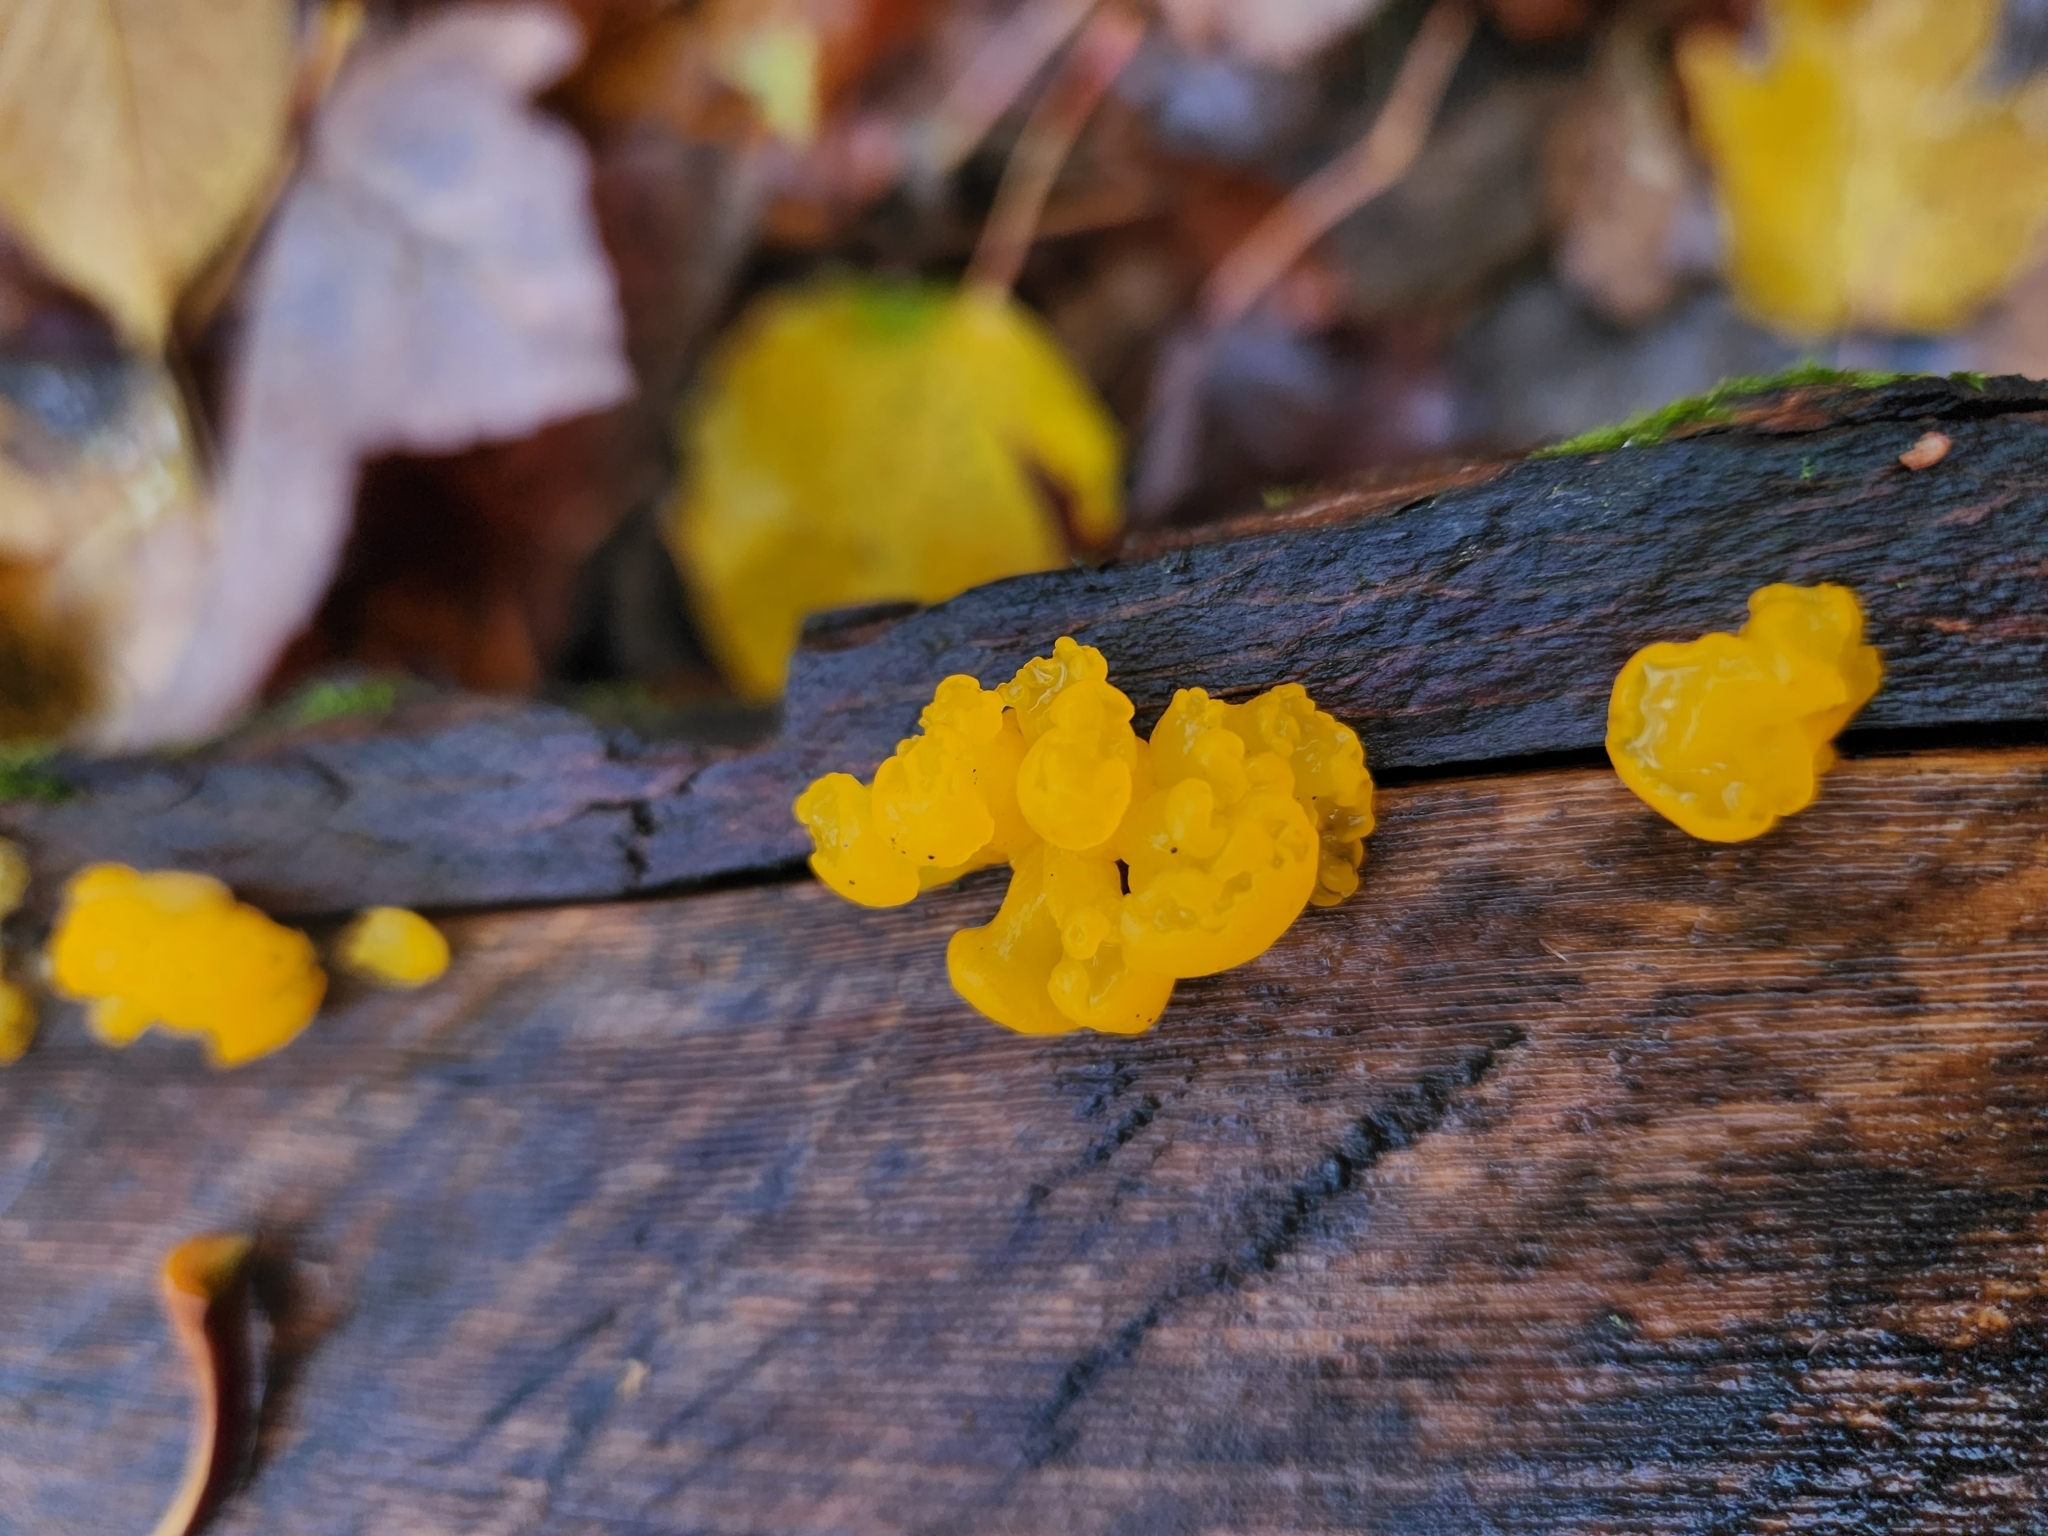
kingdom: Fungi
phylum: Basidiomycota
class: Dacrymycetes
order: Dacrymycetales
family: Dacrymycetaceae
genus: Dacrymyces
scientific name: Dacrymyces chrysospermus
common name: Orange jelly spot
